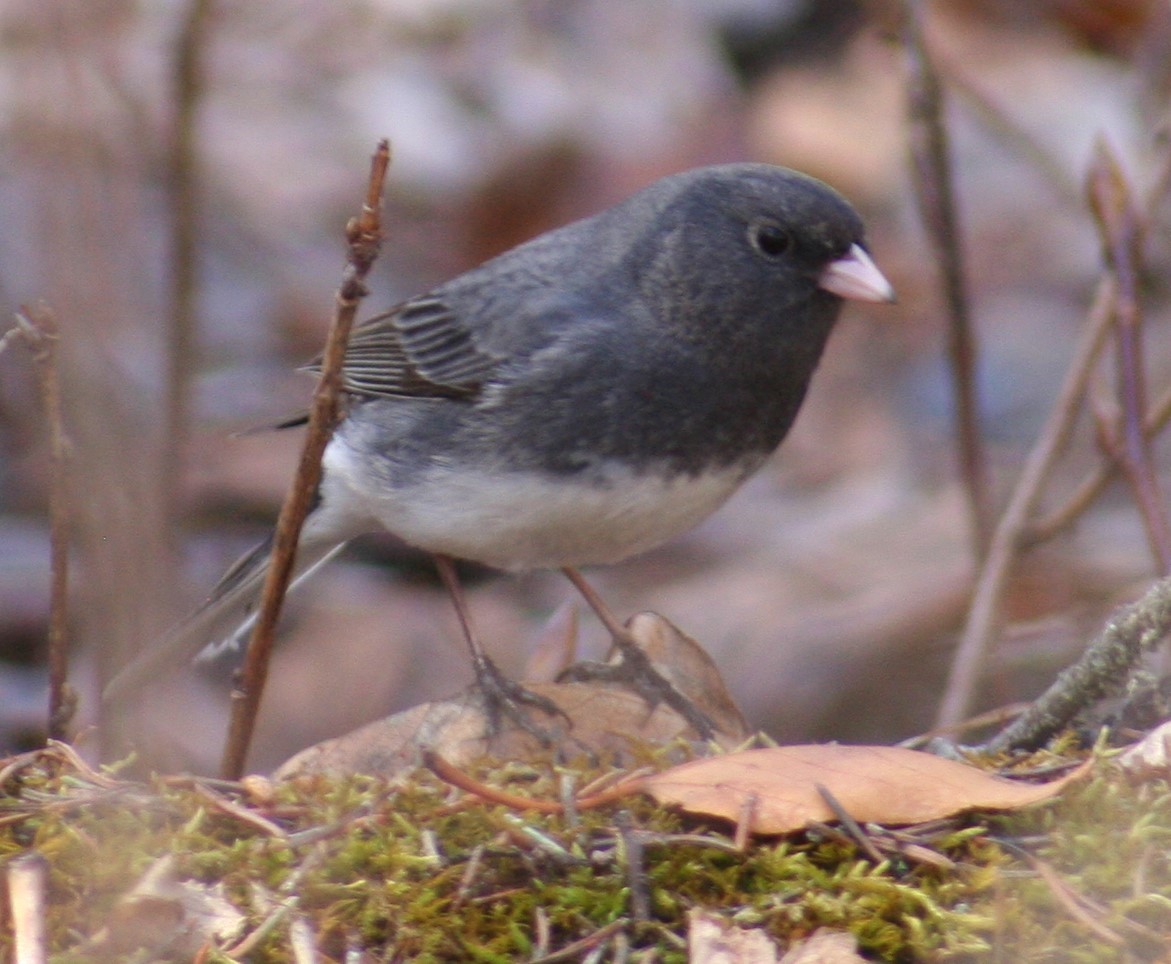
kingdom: Animalia
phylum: Chordata
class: Aves
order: Passeriformes
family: Passerellidae
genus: Junco
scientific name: Junco hyemalis
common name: Dark-eyed junco
